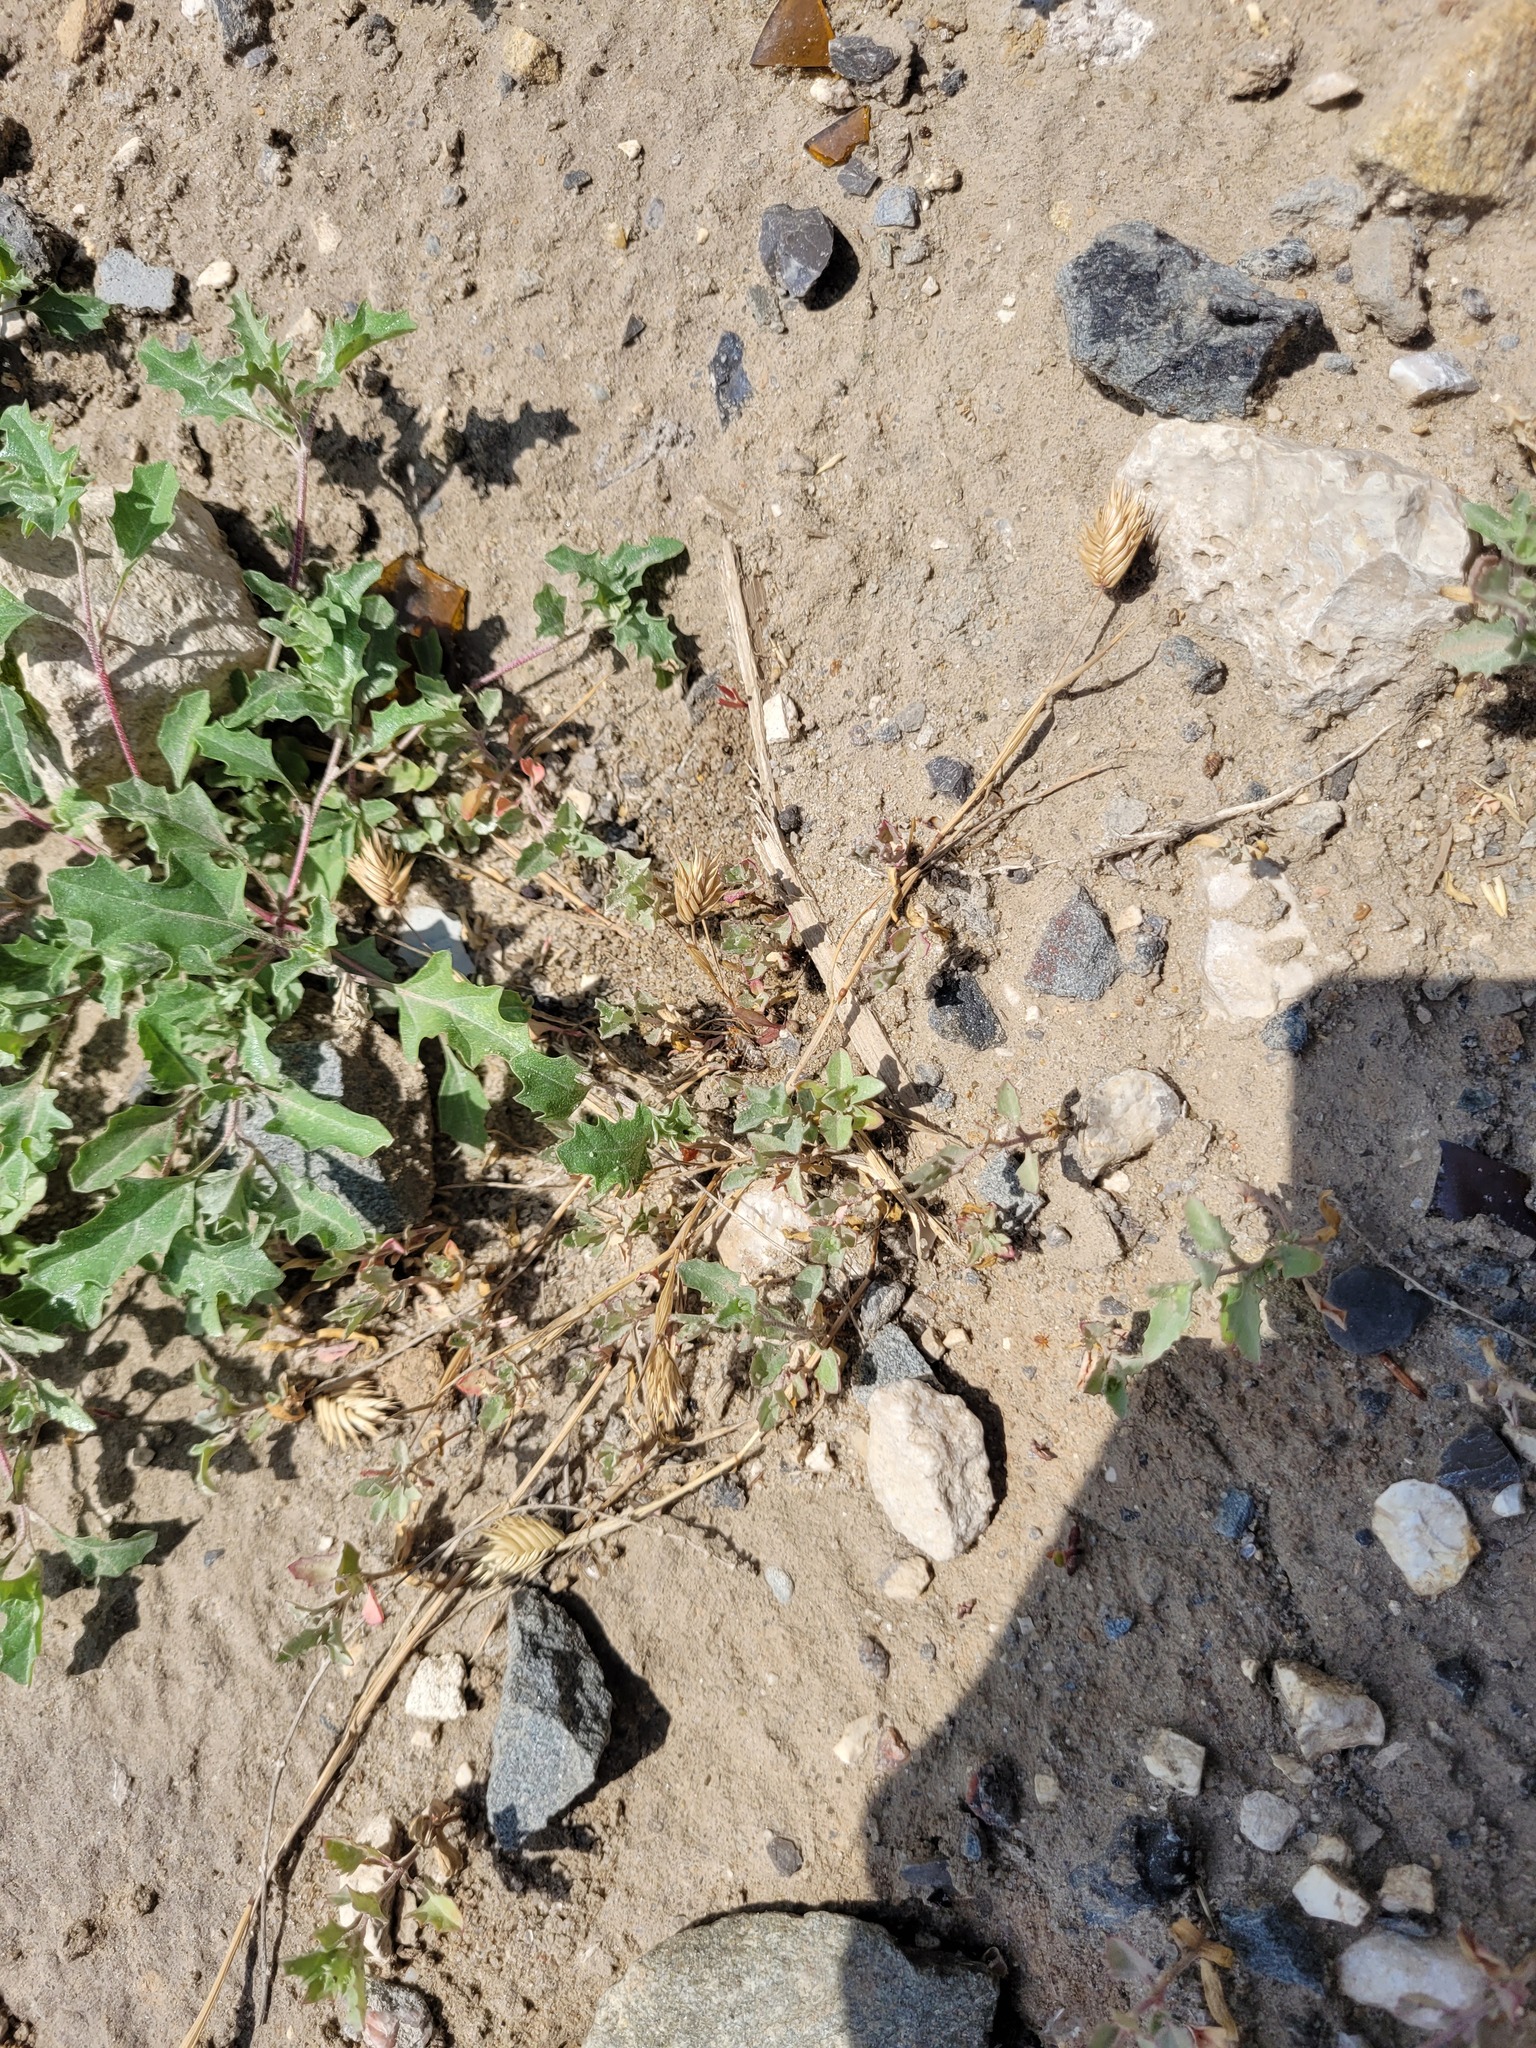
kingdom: Plantae
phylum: Tracheophyta
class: Liliopsida
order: Poales
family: Poaceae
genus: Eremopyrum
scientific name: Eremopyrum triticeum
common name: Annual wheatgrass
